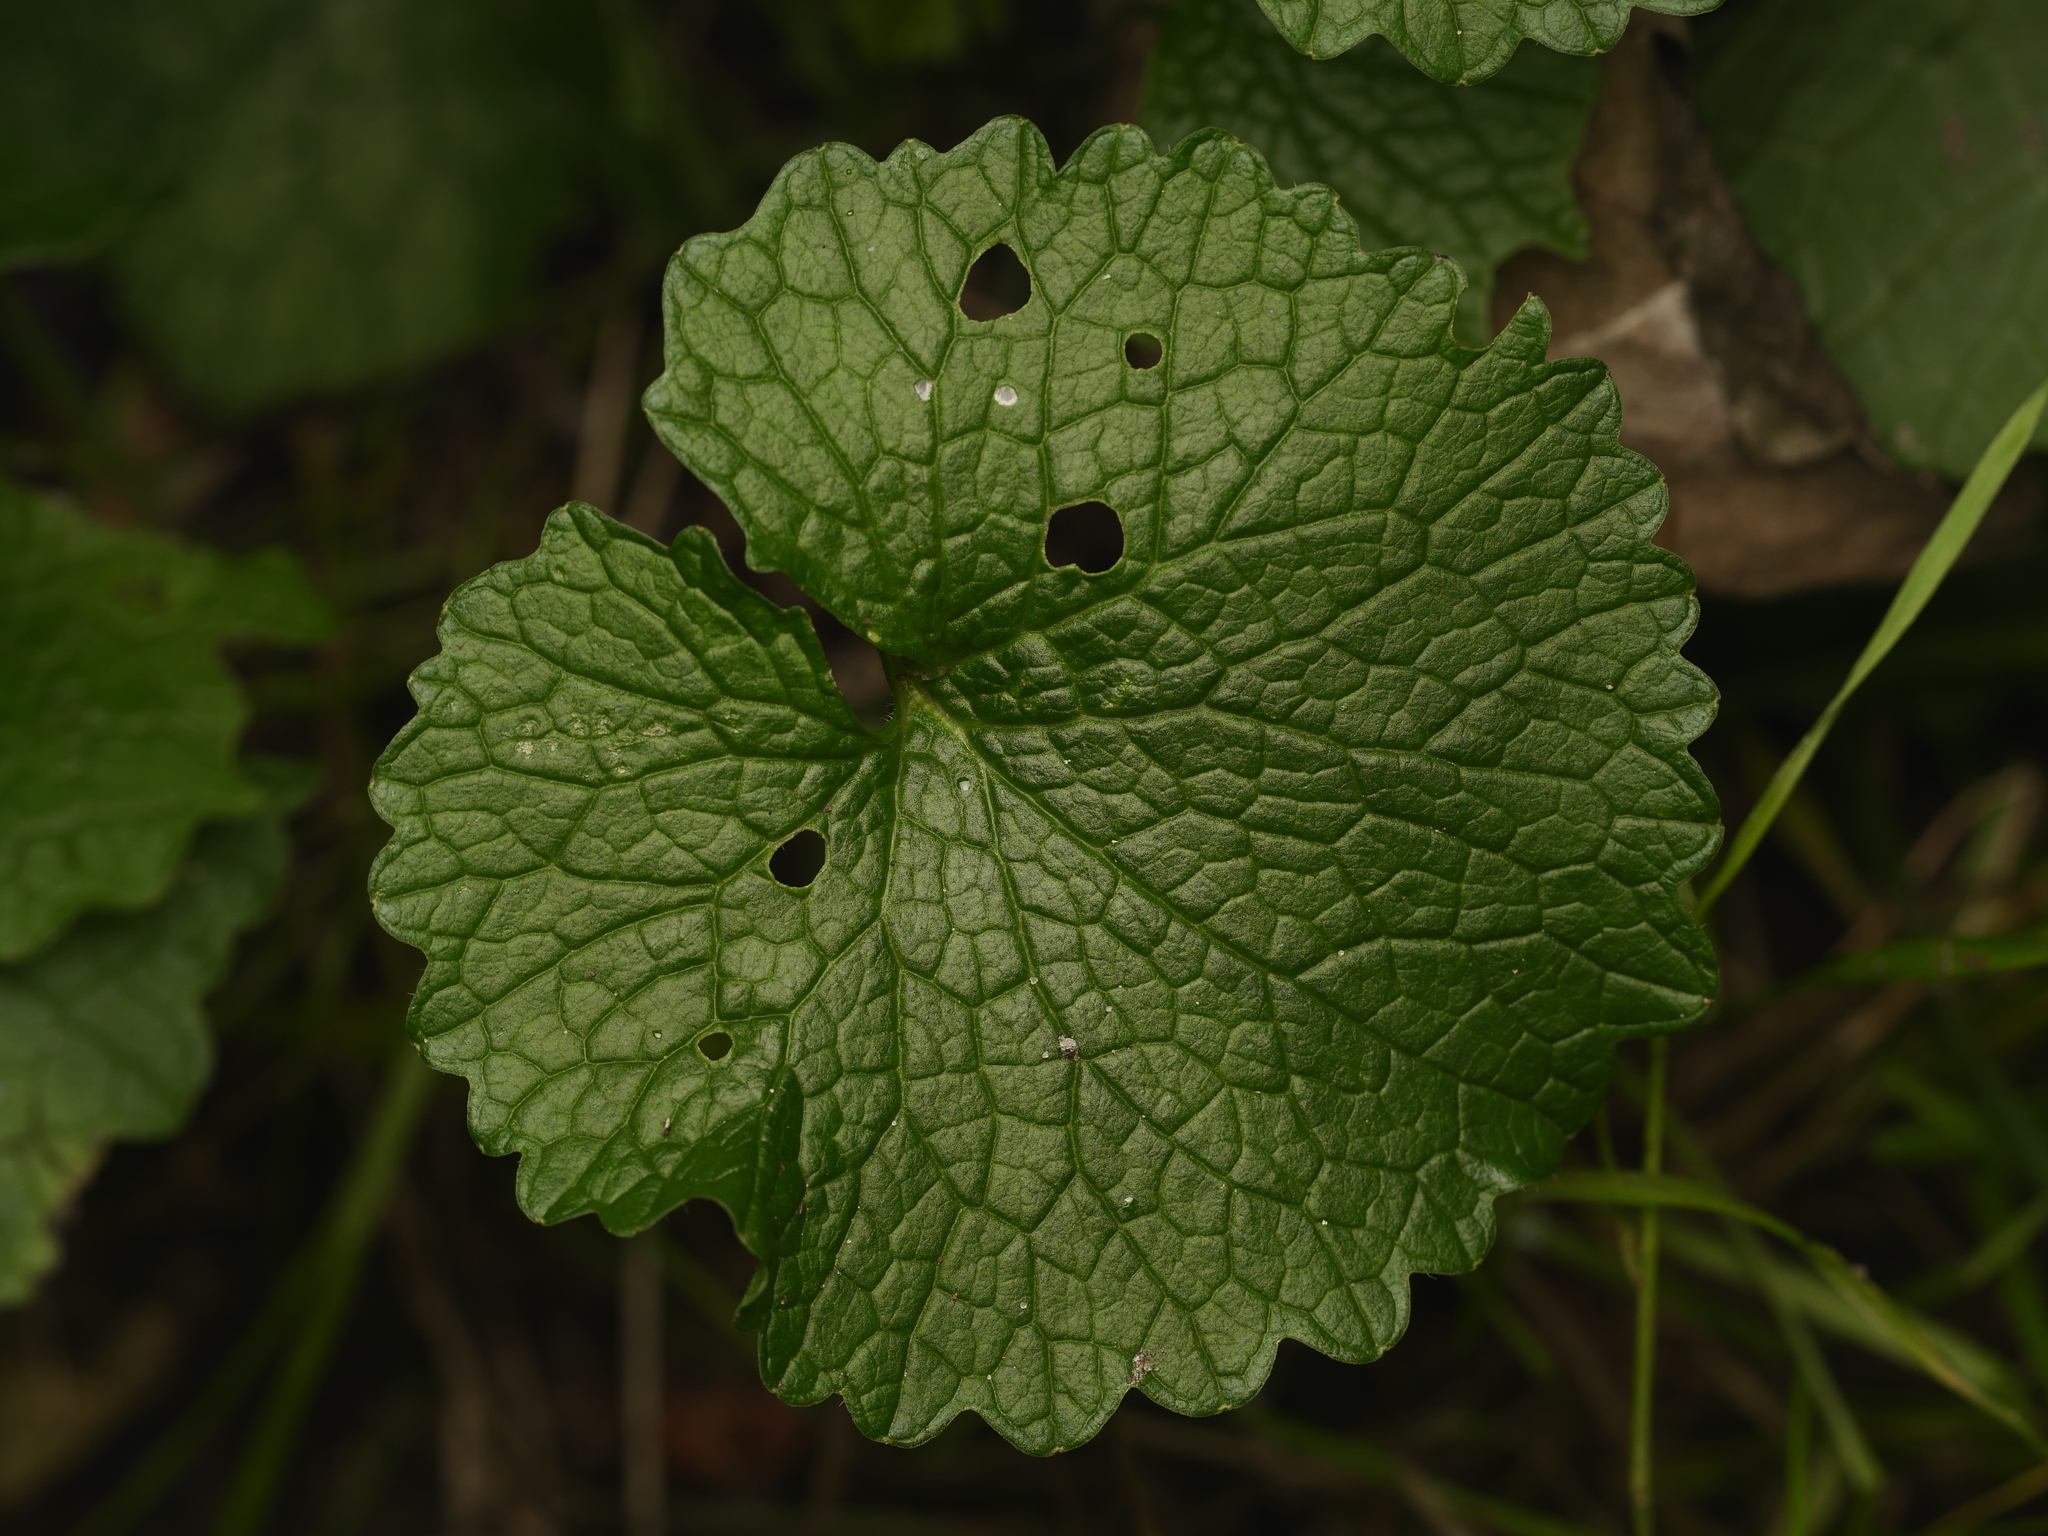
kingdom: Plantae
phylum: Tracheophyta
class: Magnoliopsida
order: Brassicales
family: Brassicaceae
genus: Alliaria
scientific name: Alliaria petiolata
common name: Garlic mustard
